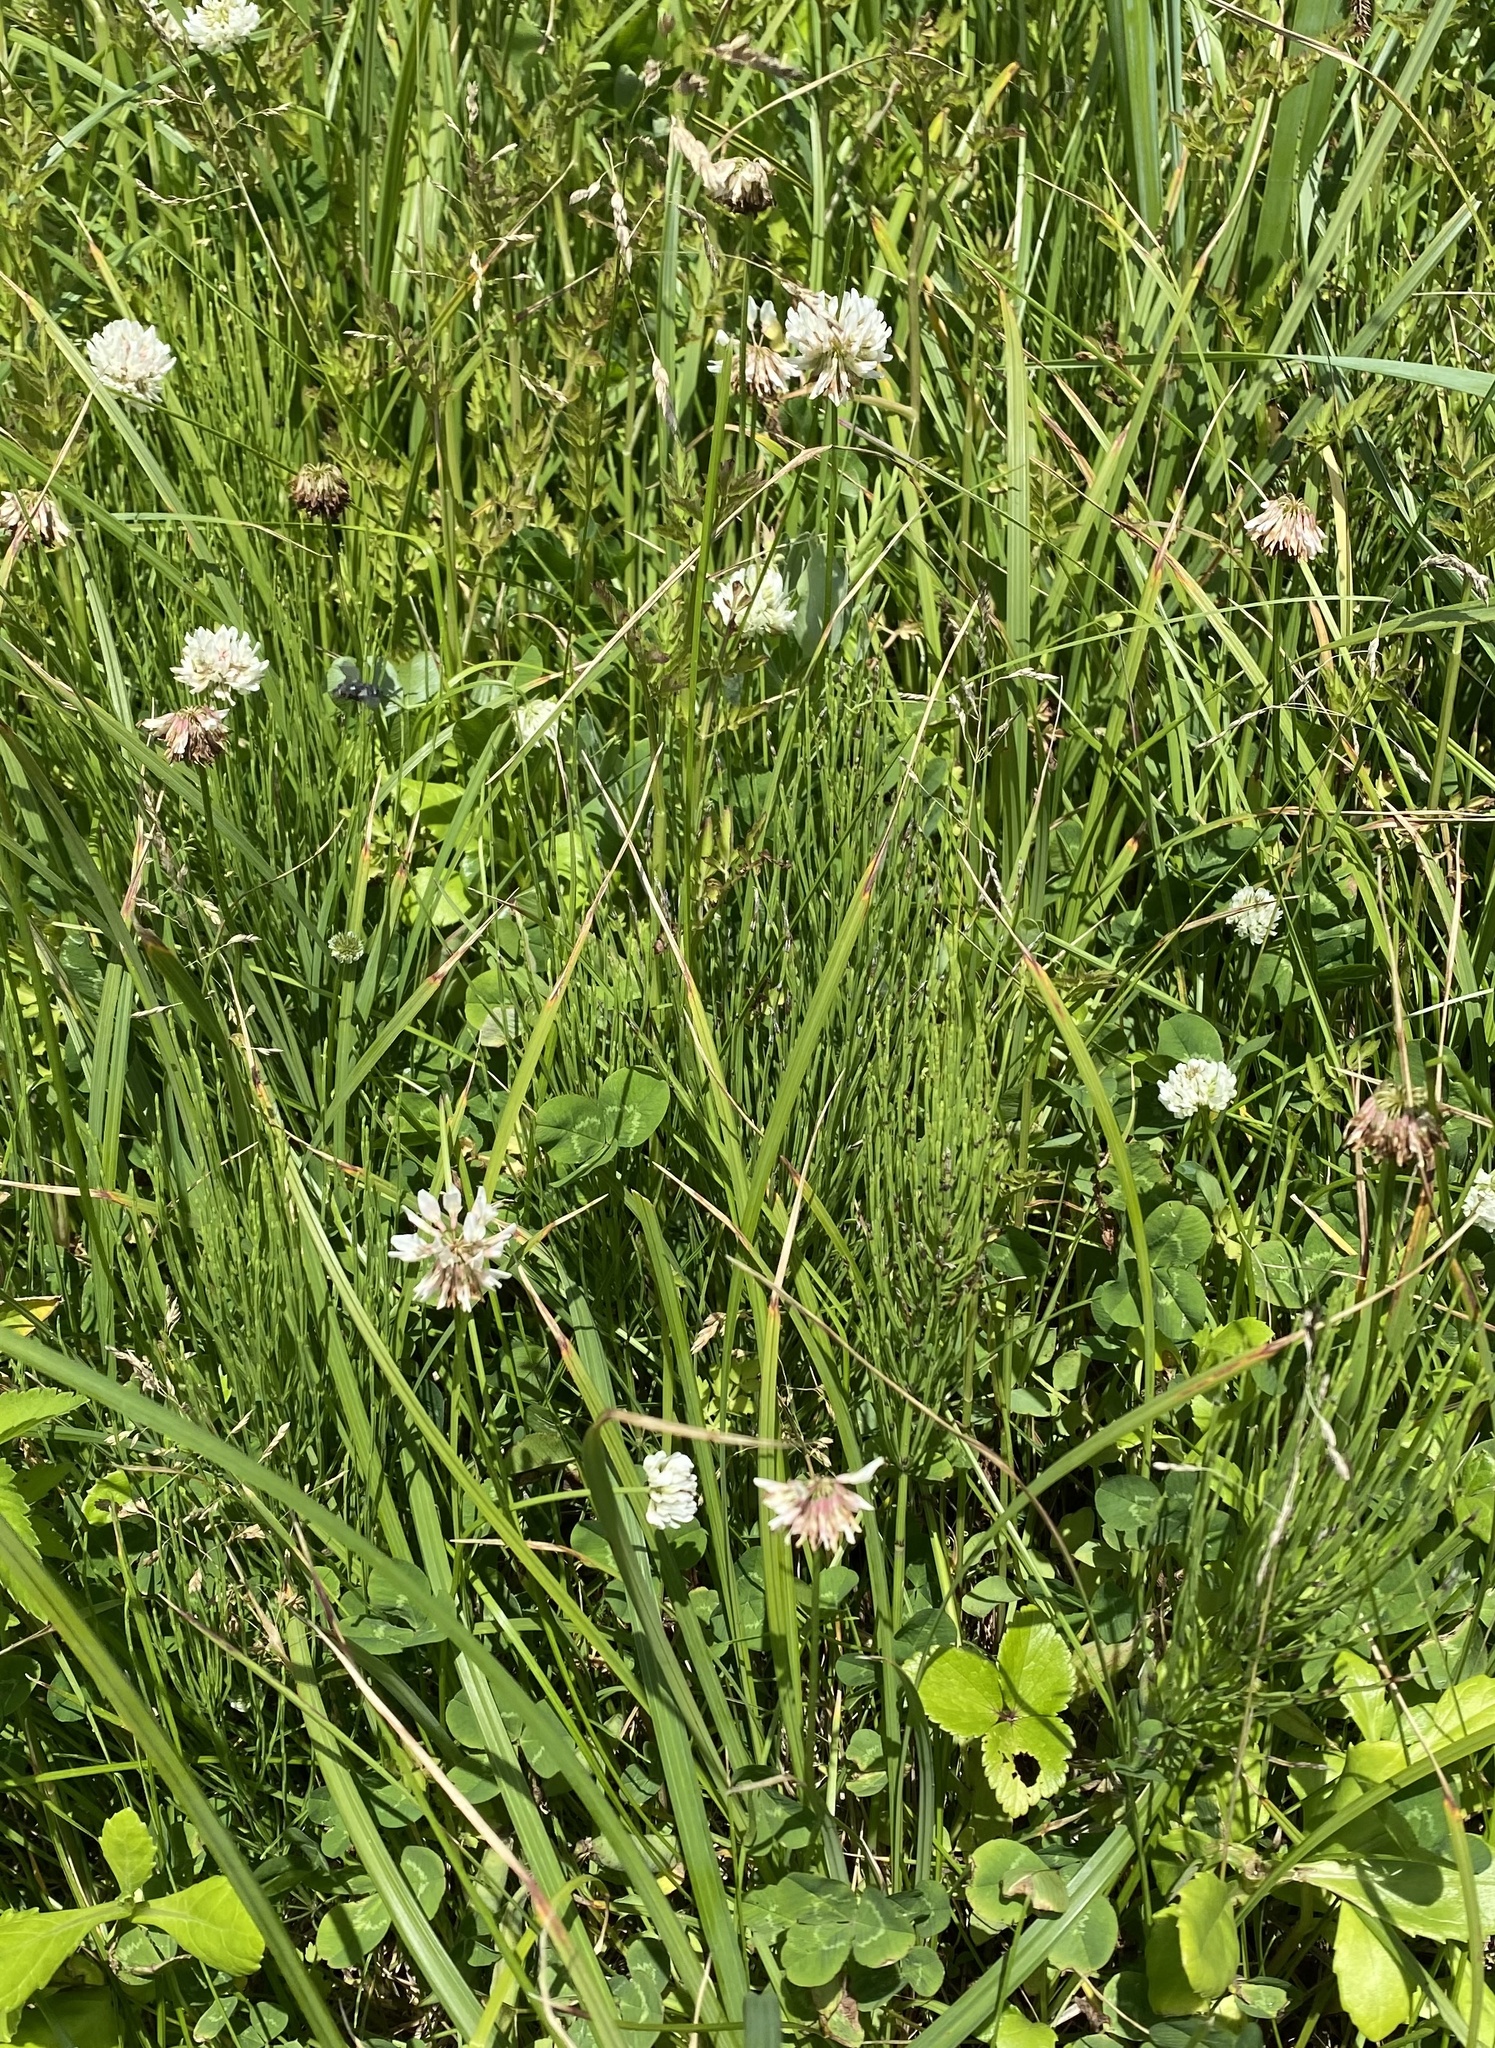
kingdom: Plantae
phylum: Tracheophyta
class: Polypodiopsida
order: Equisetales
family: Equisetaceae
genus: Equisetum
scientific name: Equisetum arvense
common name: Field horsetail
